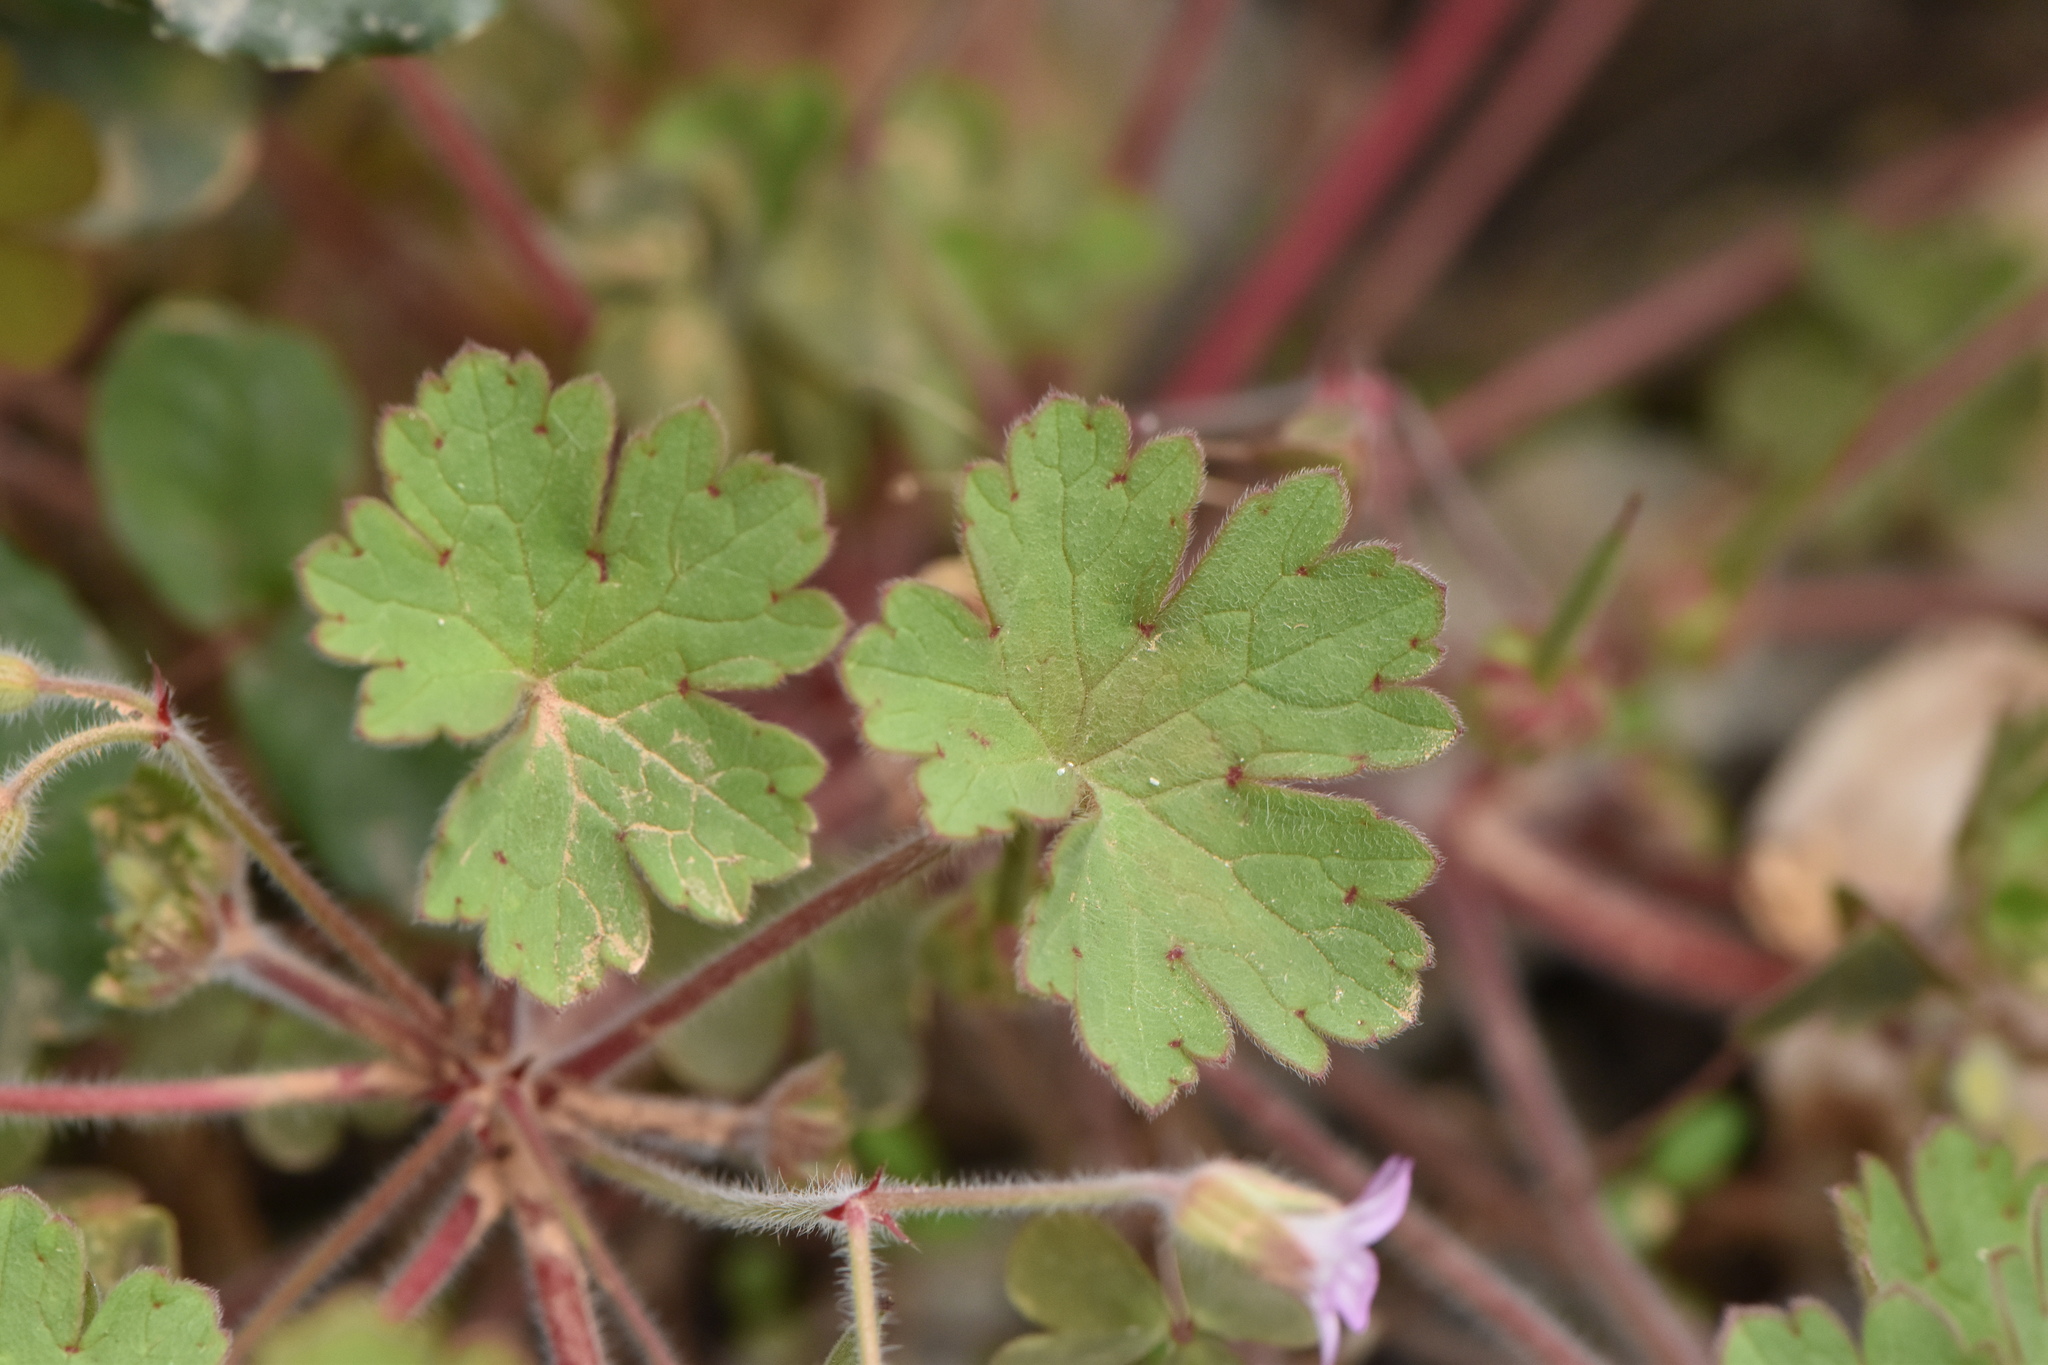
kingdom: Plantae
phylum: Tracheophyta
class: Magnoliopsida
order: Geraniales
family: Geraniaceae
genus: Geranium
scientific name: Geranium rotundifolium
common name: Round-leaved crane's-bill
